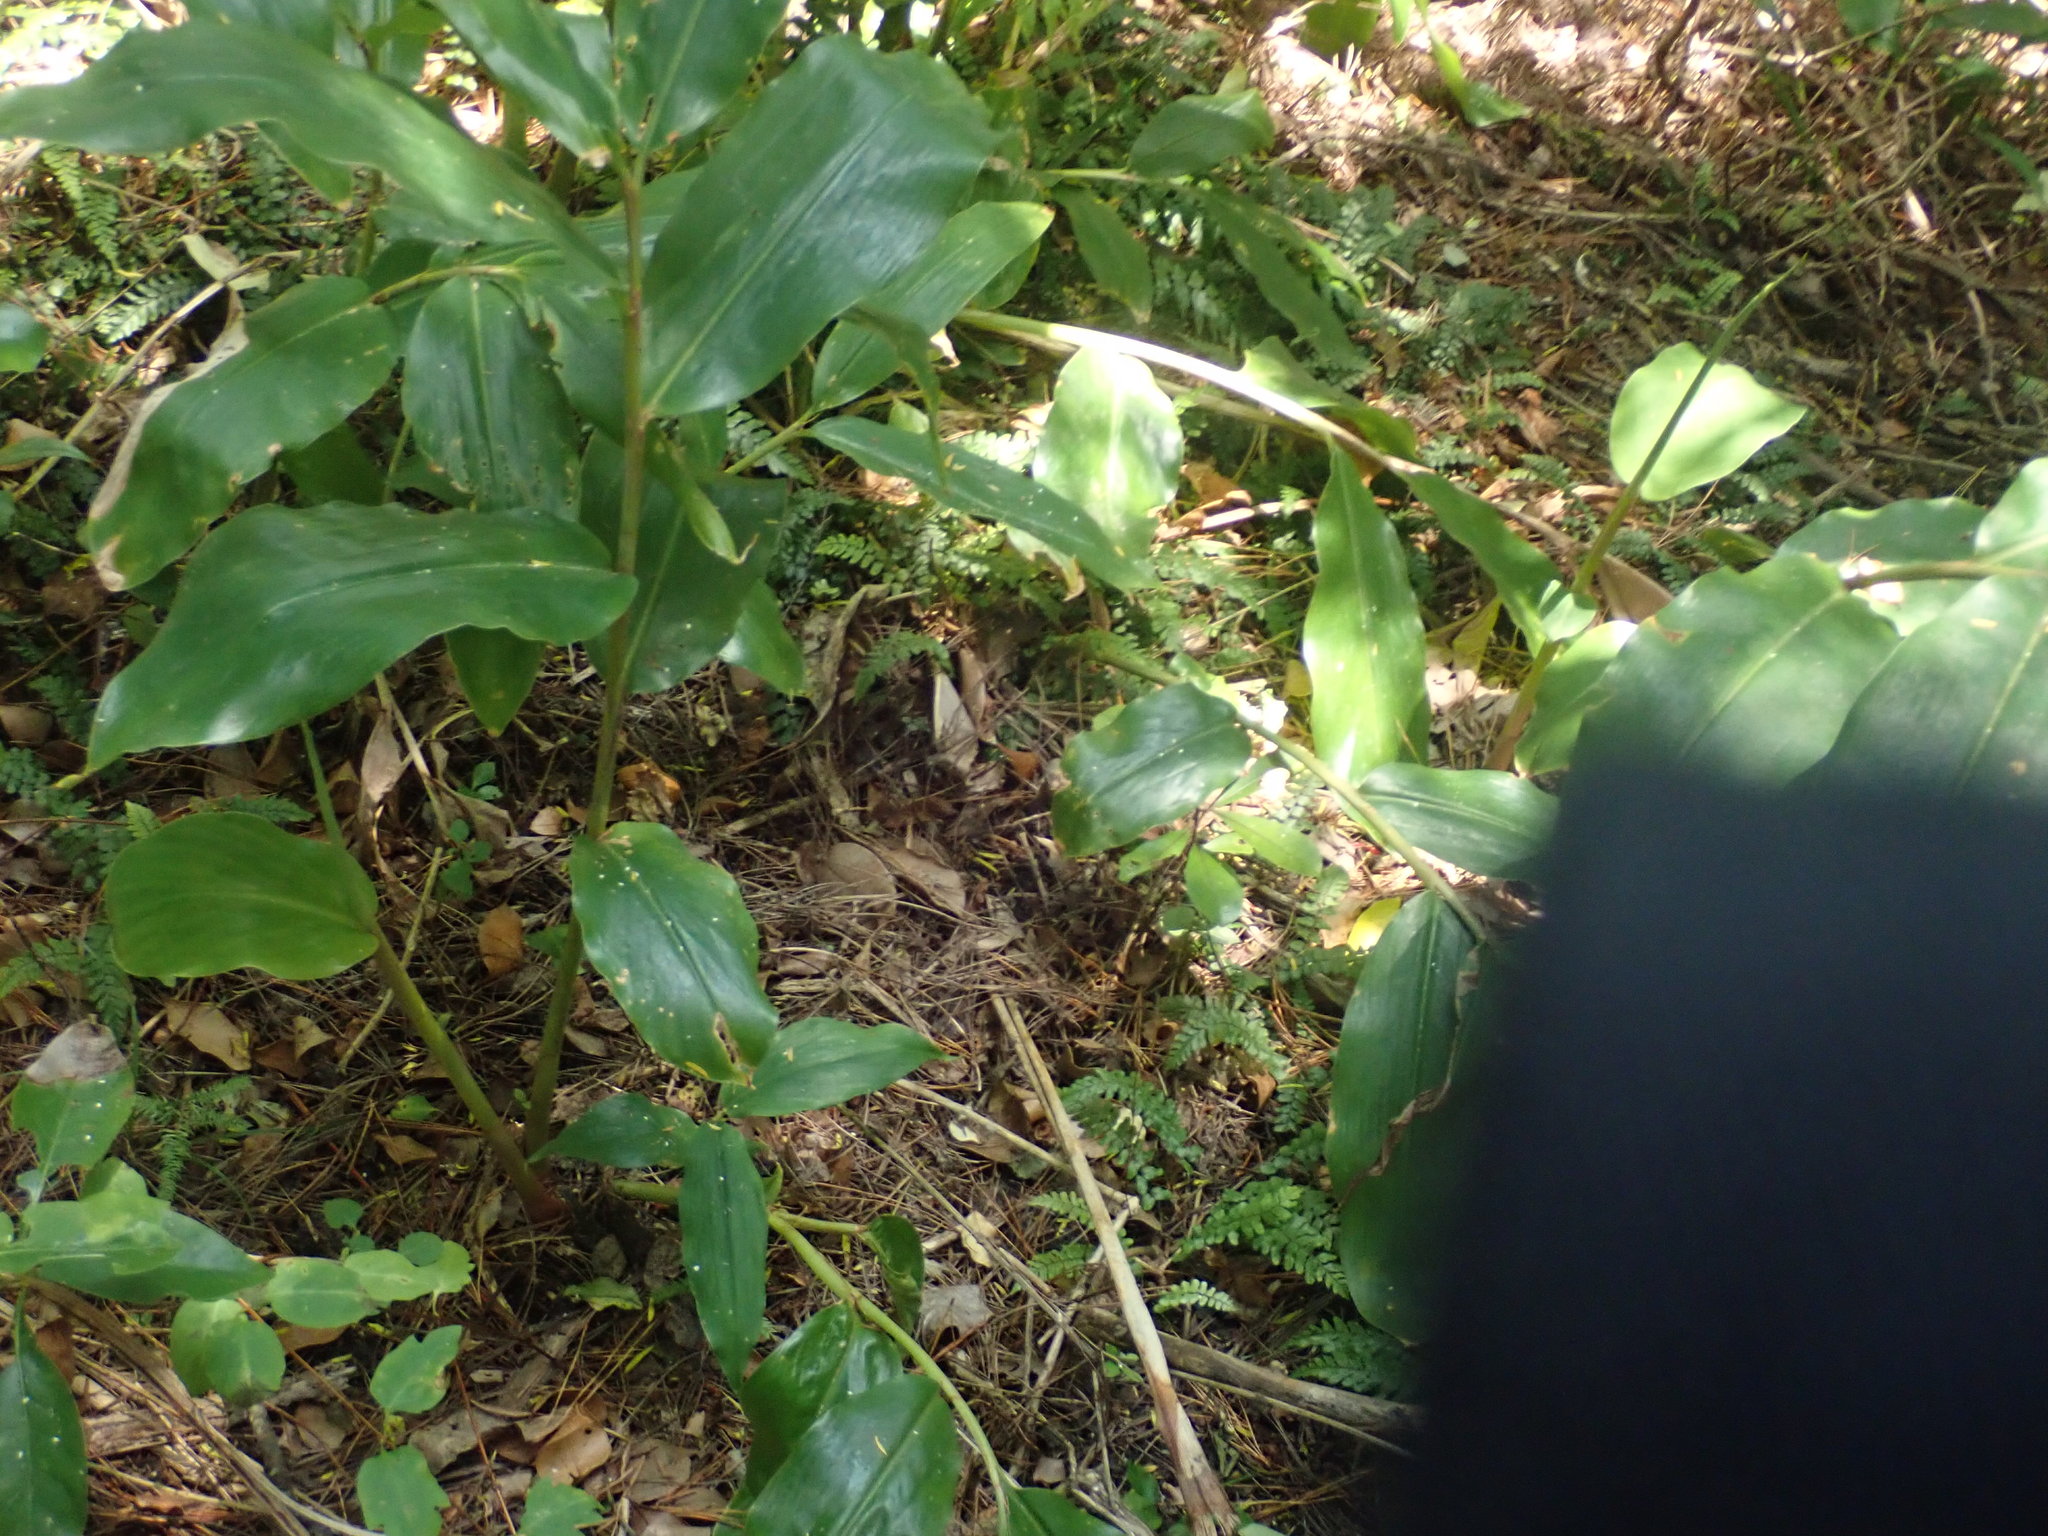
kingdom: Plantae
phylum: Tracheophyta
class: Liliopsida
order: Zingiberales
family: Zingiberaceae
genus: Hedychium
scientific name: Hedychium gardnerianum
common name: Himalayan ginger
